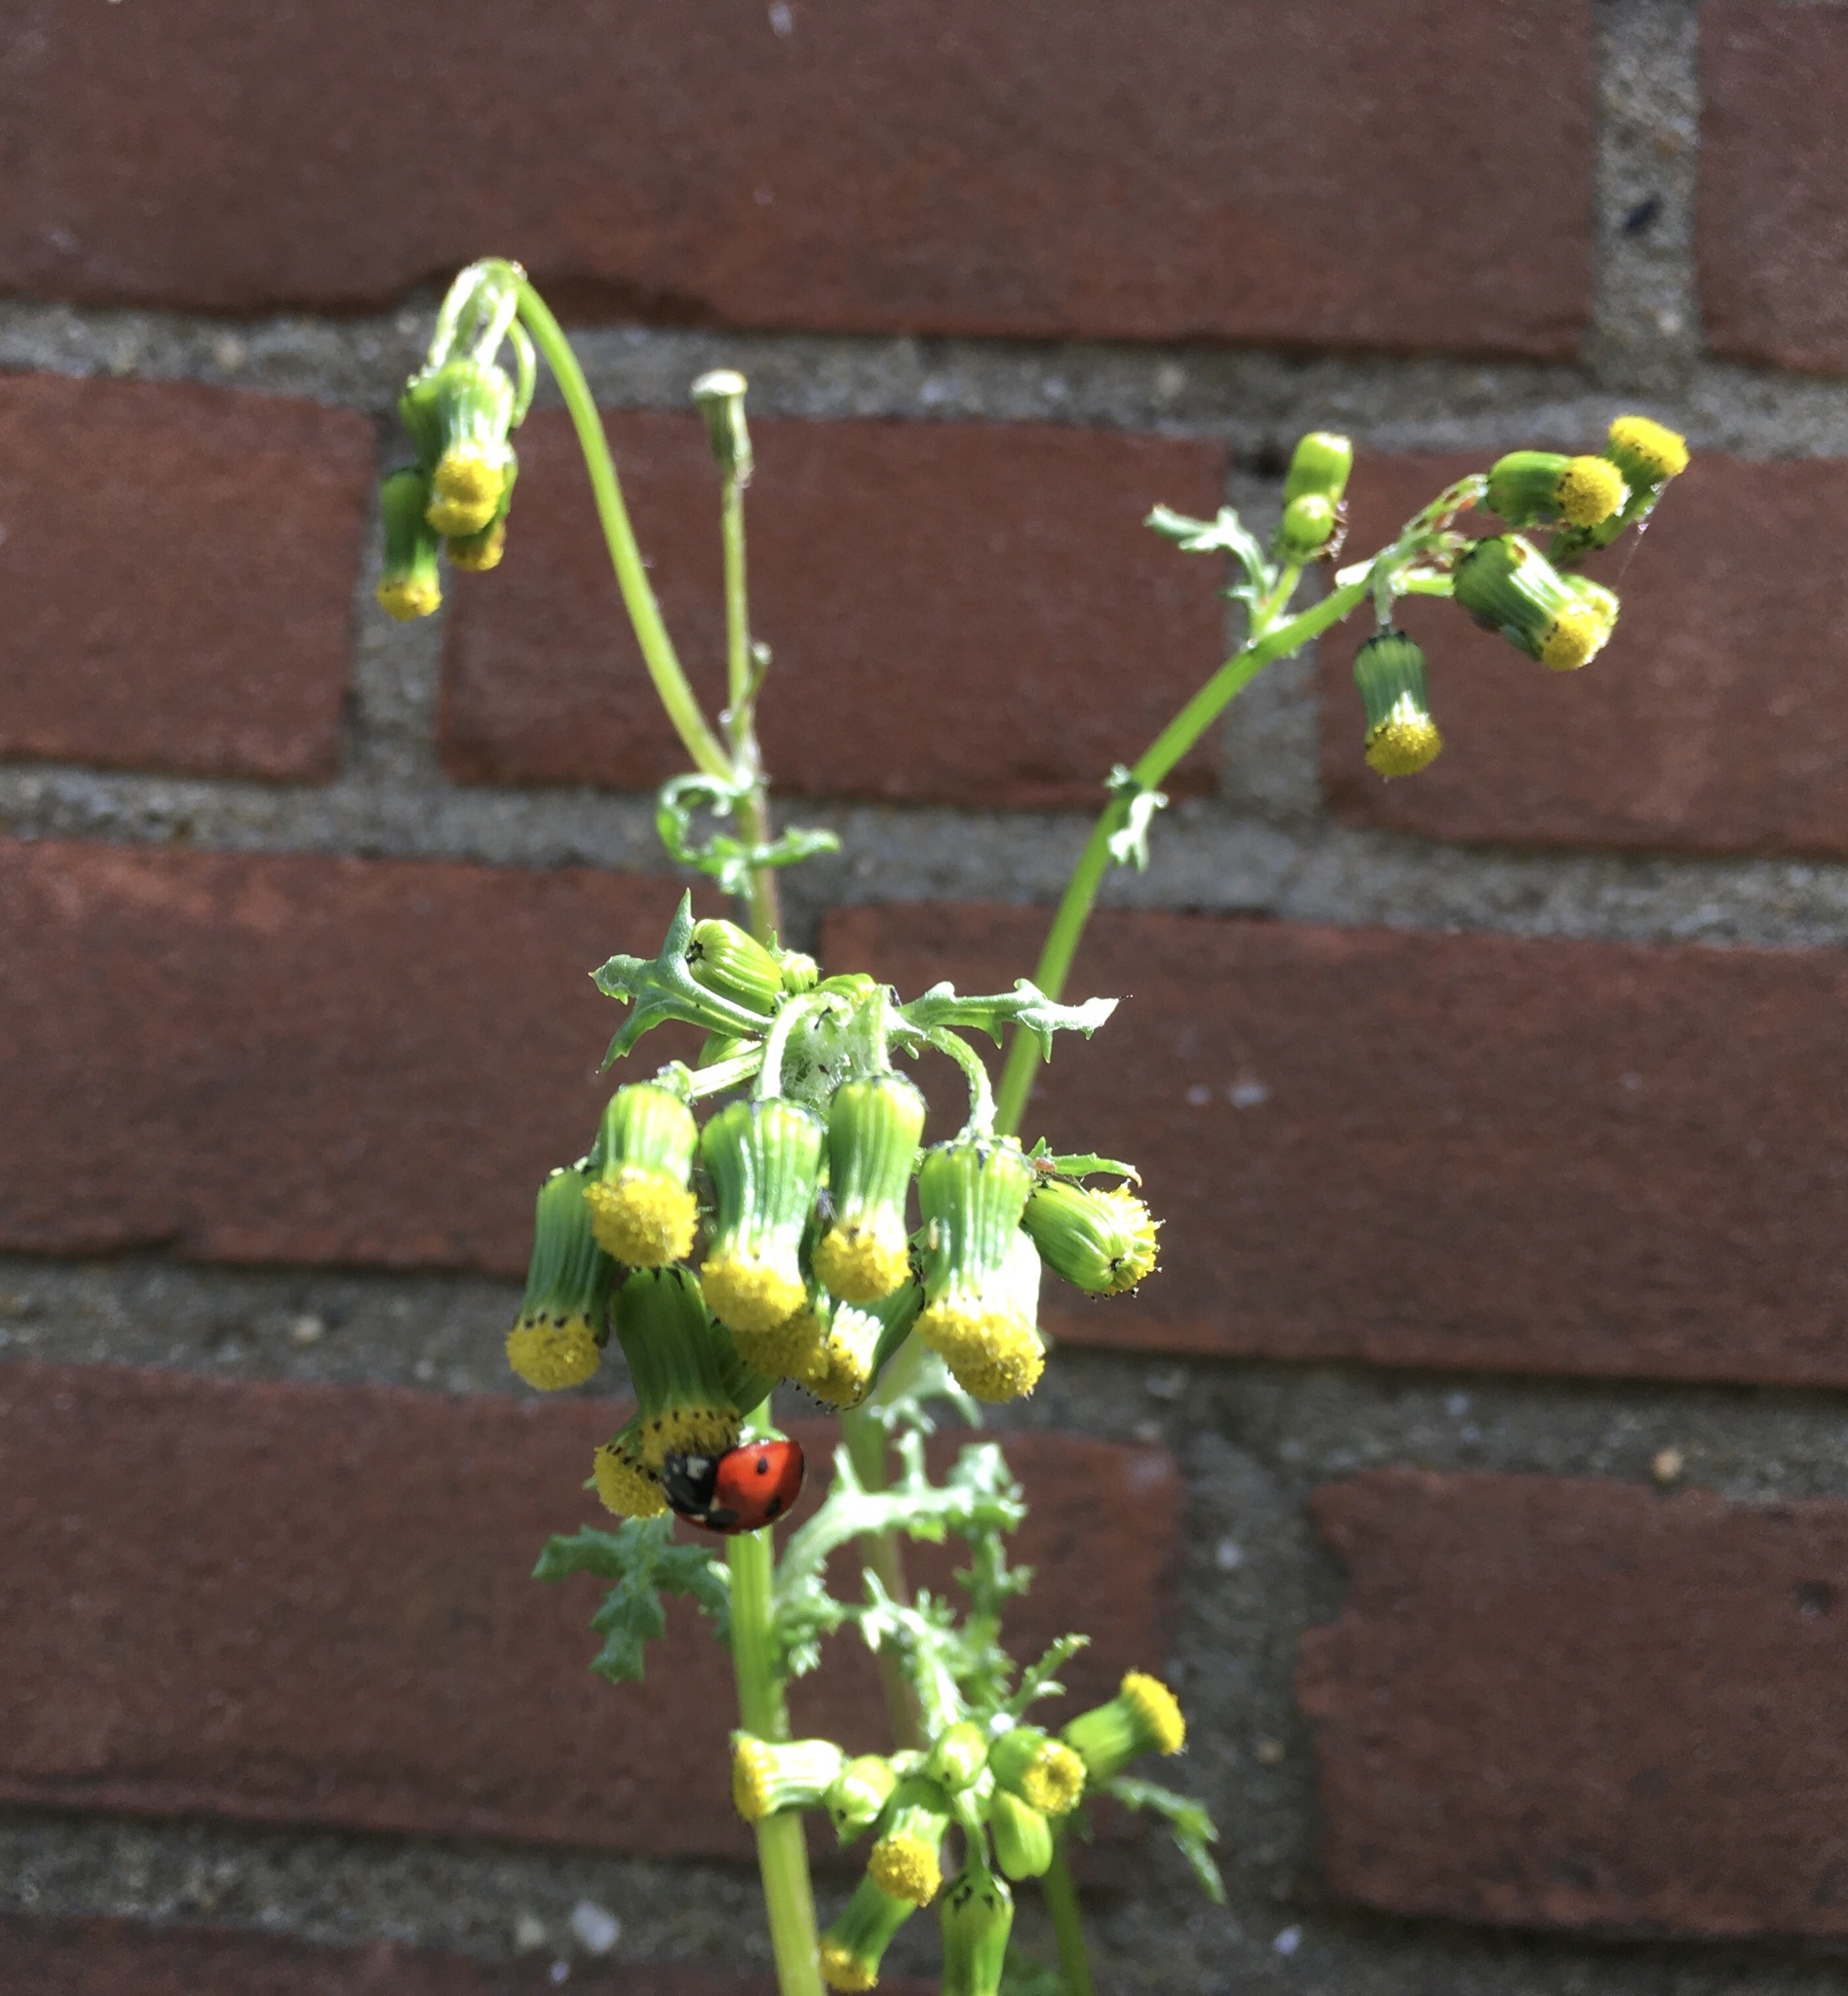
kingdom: Animalia
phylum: Arthropoda
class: Insecta
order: Coleoptera
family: Coccinellidae
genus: Coccinella
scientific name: Coccinella septempunctata
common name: Sevenspotted lady beetle
